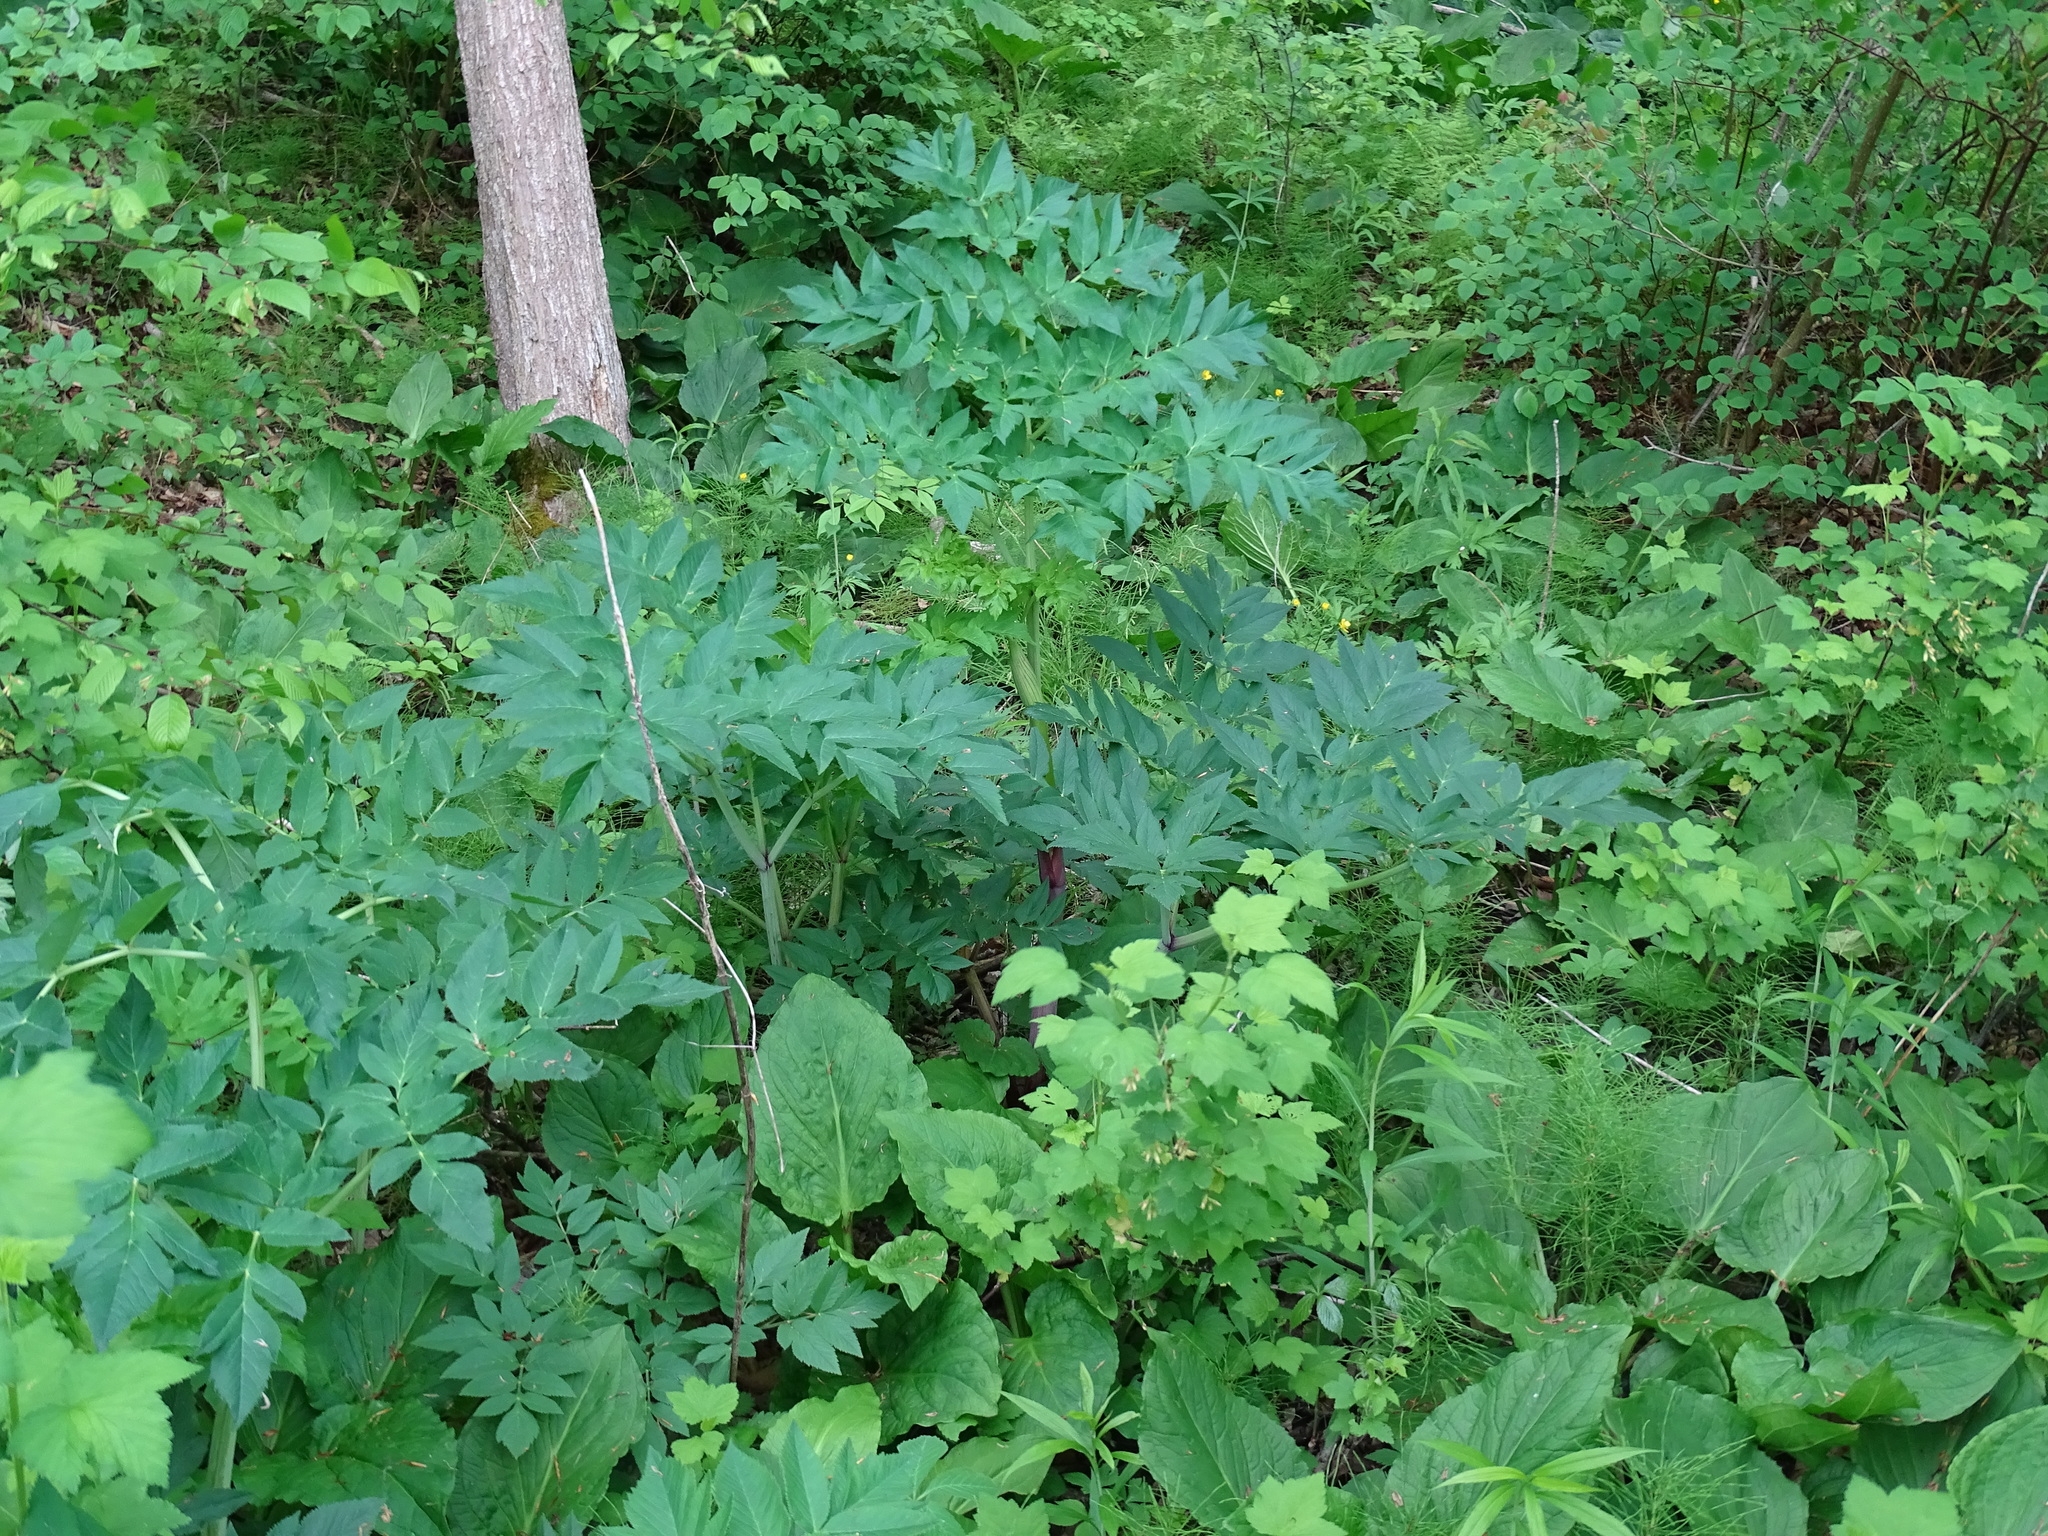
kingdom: Plantae
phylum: Tracheophyta
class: Magnoliopsida
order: Apiales
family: Apiaceae
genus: Angelica
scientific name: Angelica atropurpurea
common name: Great angelica
